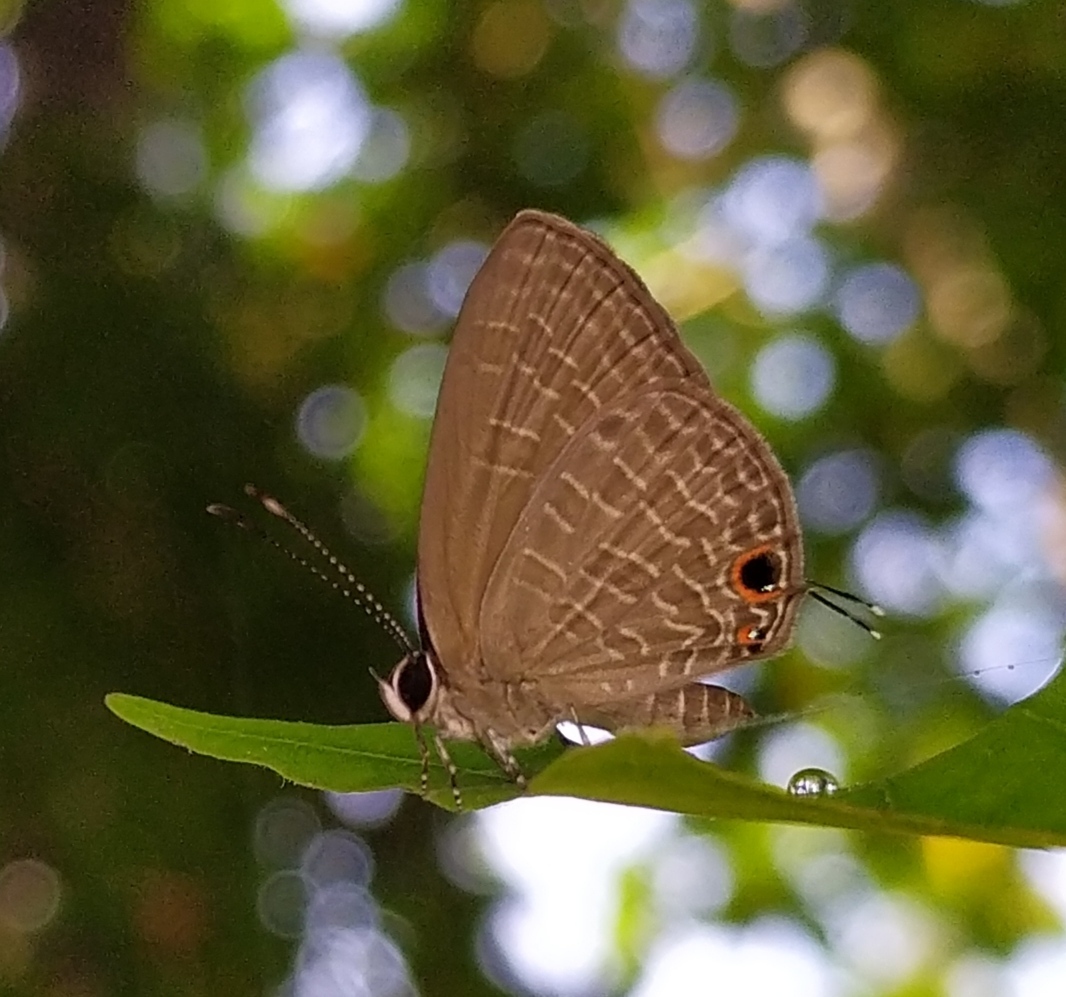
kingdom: Animalia
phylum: Arthropoda
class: Insecta
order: Lepidoptera
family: Lycaenidae
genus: Jamides
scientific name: Jamides bochus
